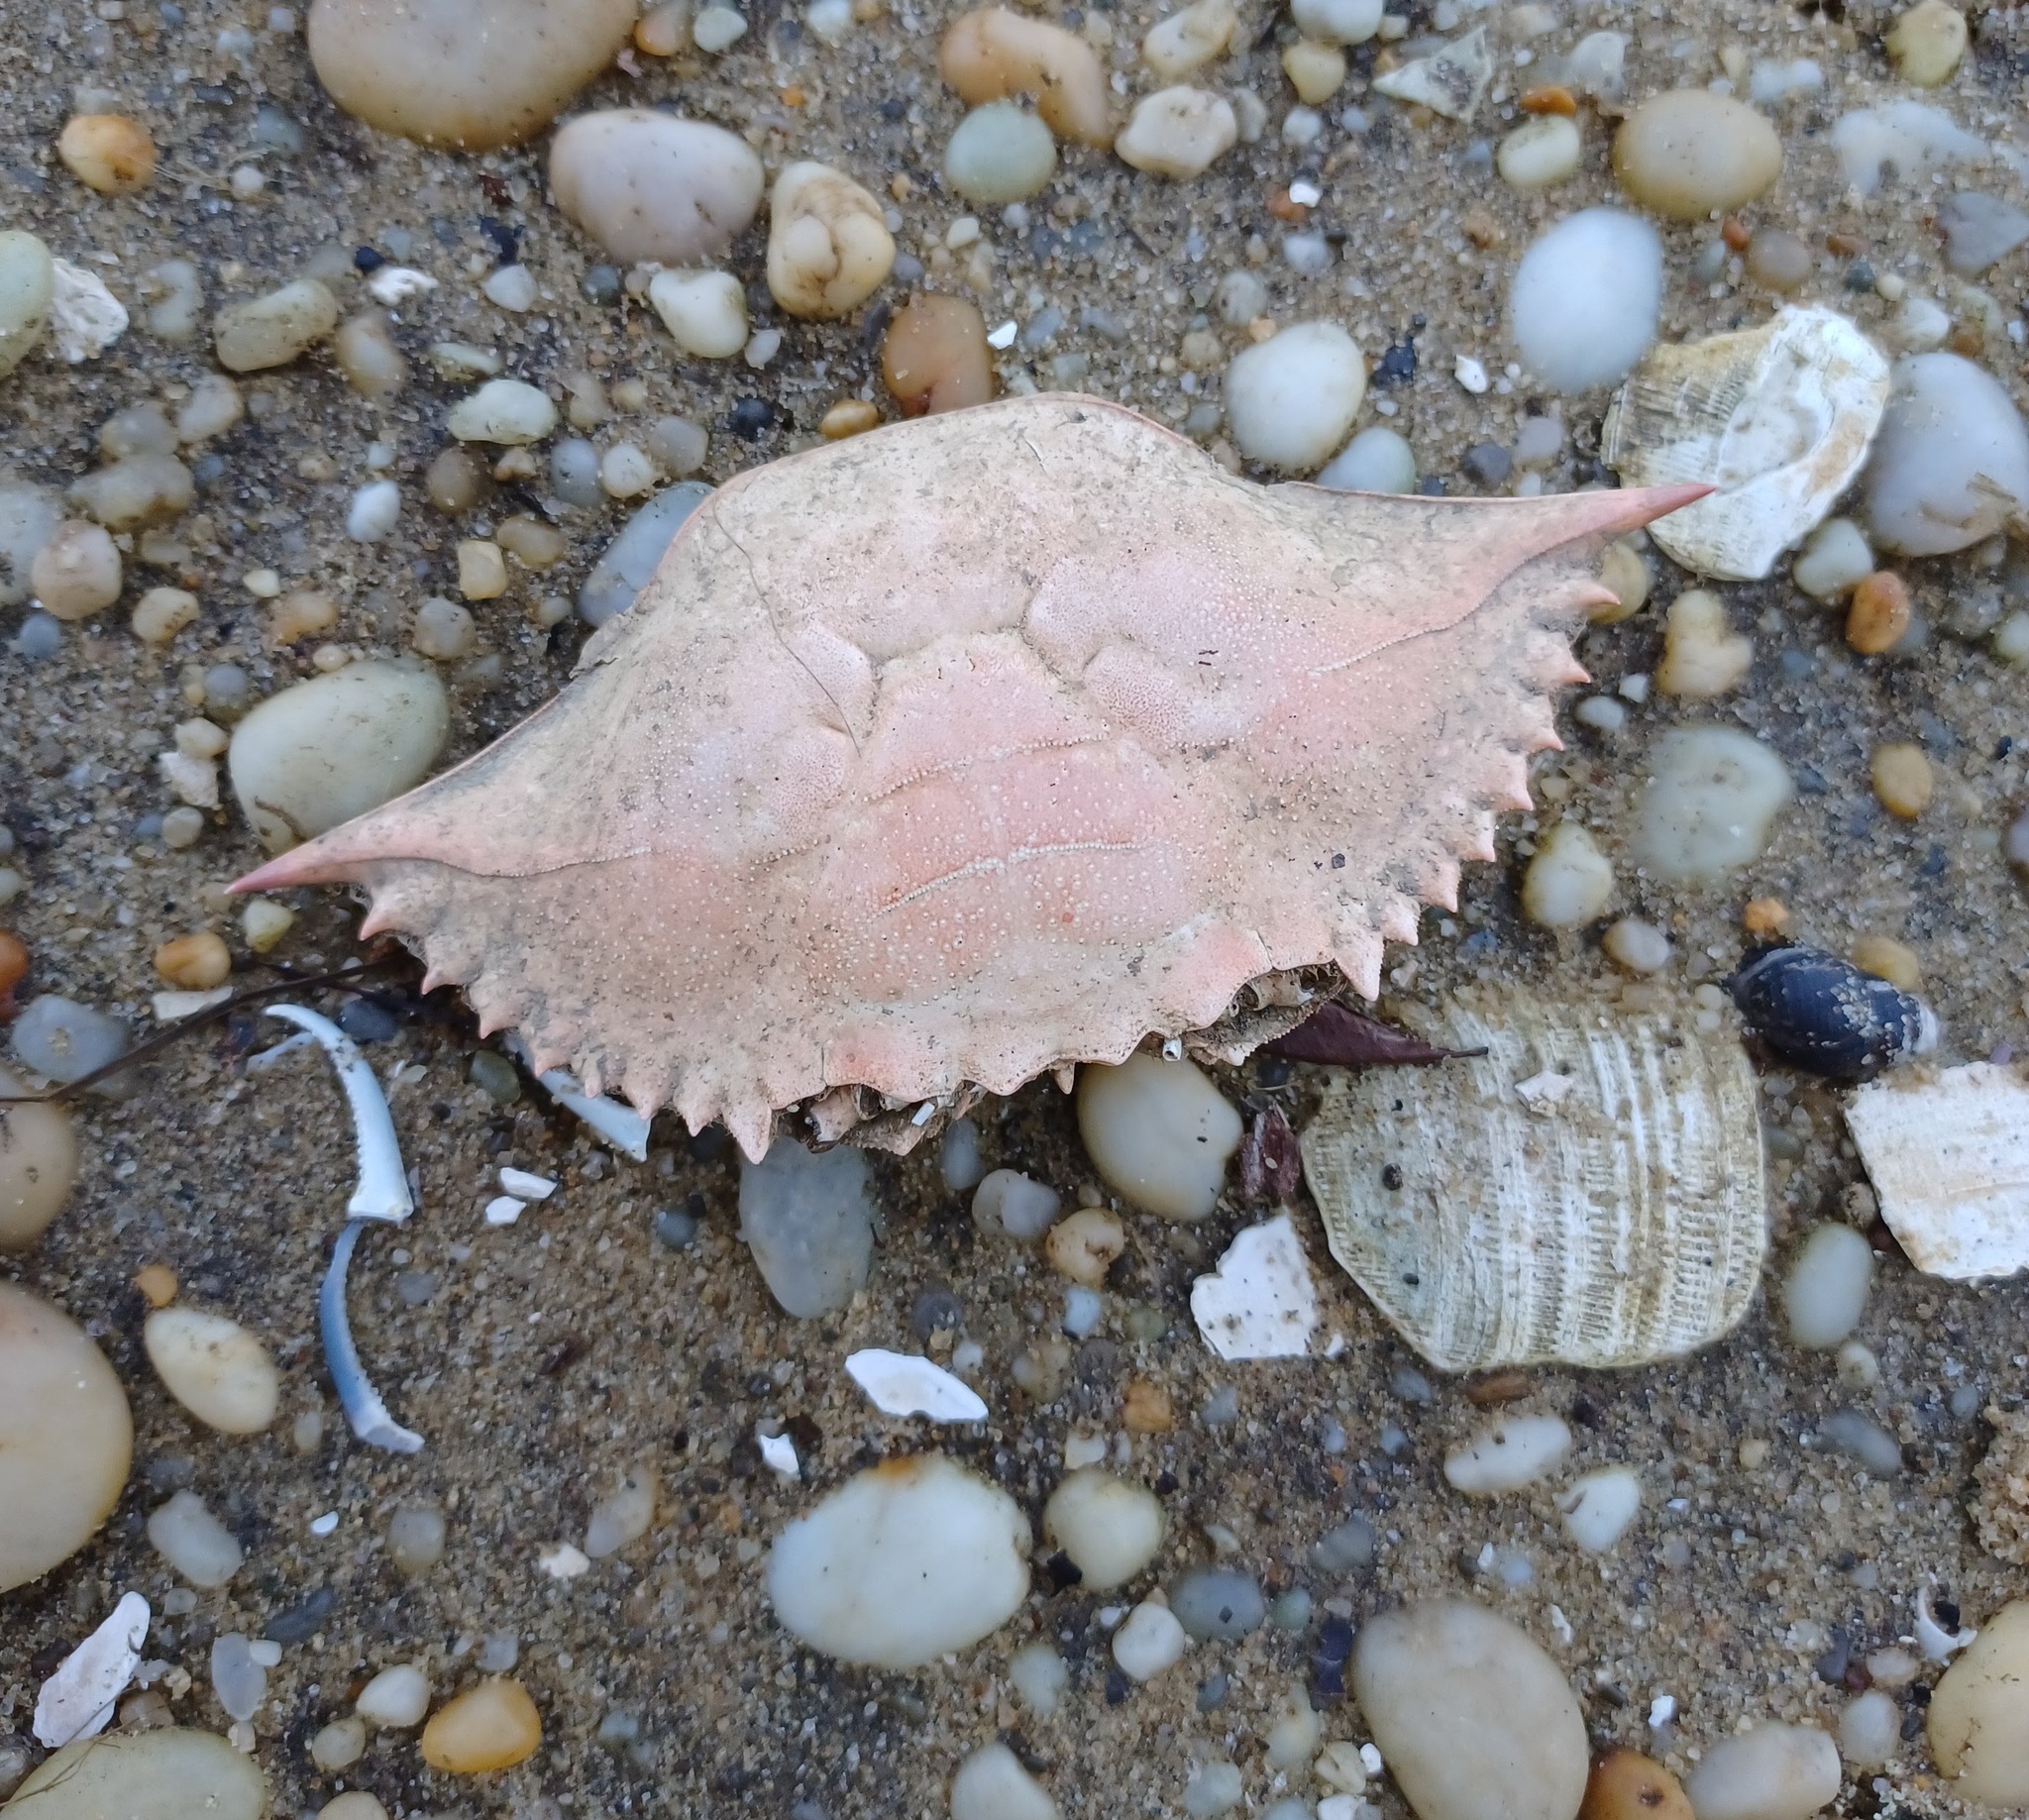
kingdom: Animalia
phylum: Arthropoda
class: Malacostraca
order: Decapoda
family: Portunidae
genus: Callinectes
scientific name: Callinectes sapidus
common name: Blue crab
